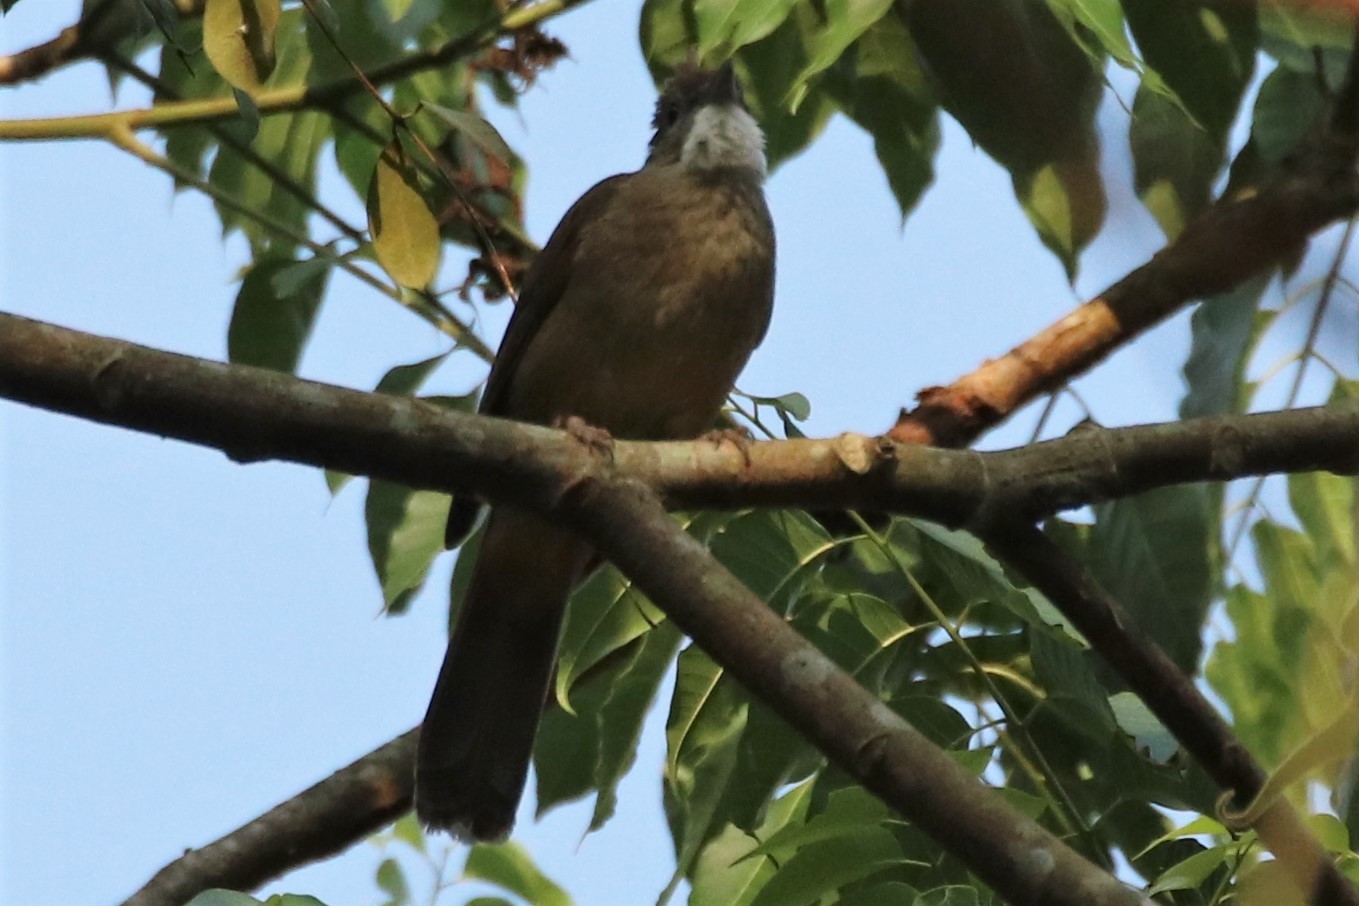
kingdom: Animalia
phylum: Chordata
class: Aves
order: Passeriformes
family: Pycnonotidae
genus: Alophoixus
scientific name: Alophoixus ochraceus
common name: Ochraceous bulbul
